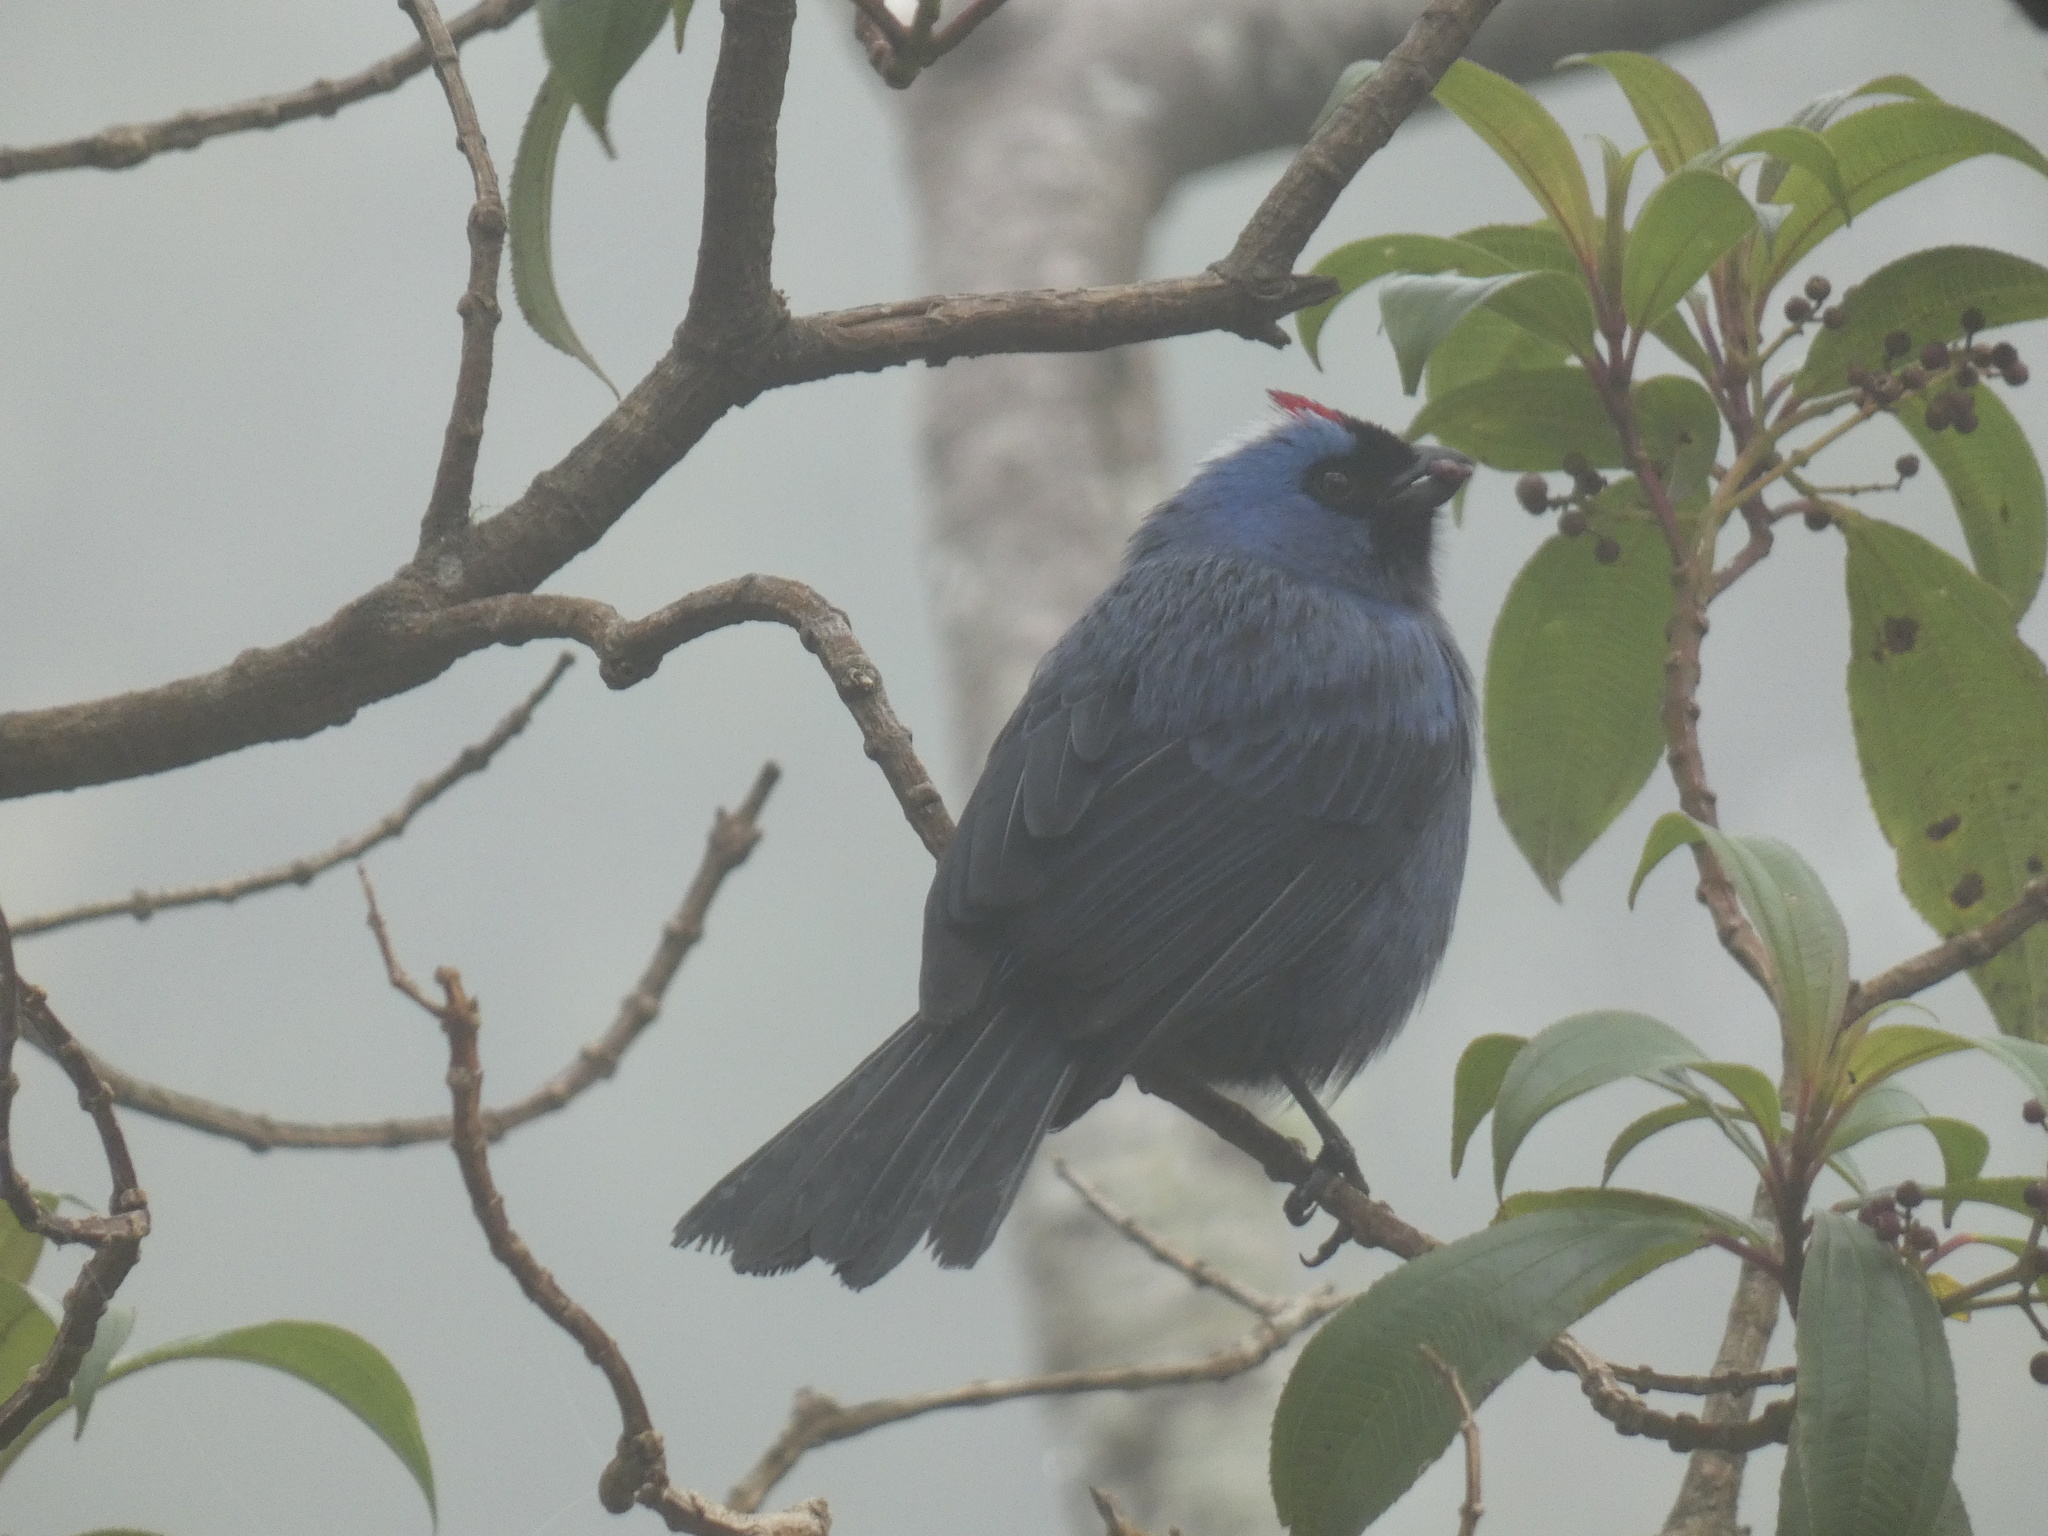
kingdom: Animalia
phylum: Chordata
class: Aves
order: Passeriformes
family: Thraupidae
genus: Stephanophorus
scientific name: Stephanophorus diadematus
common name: Diademed tanager
